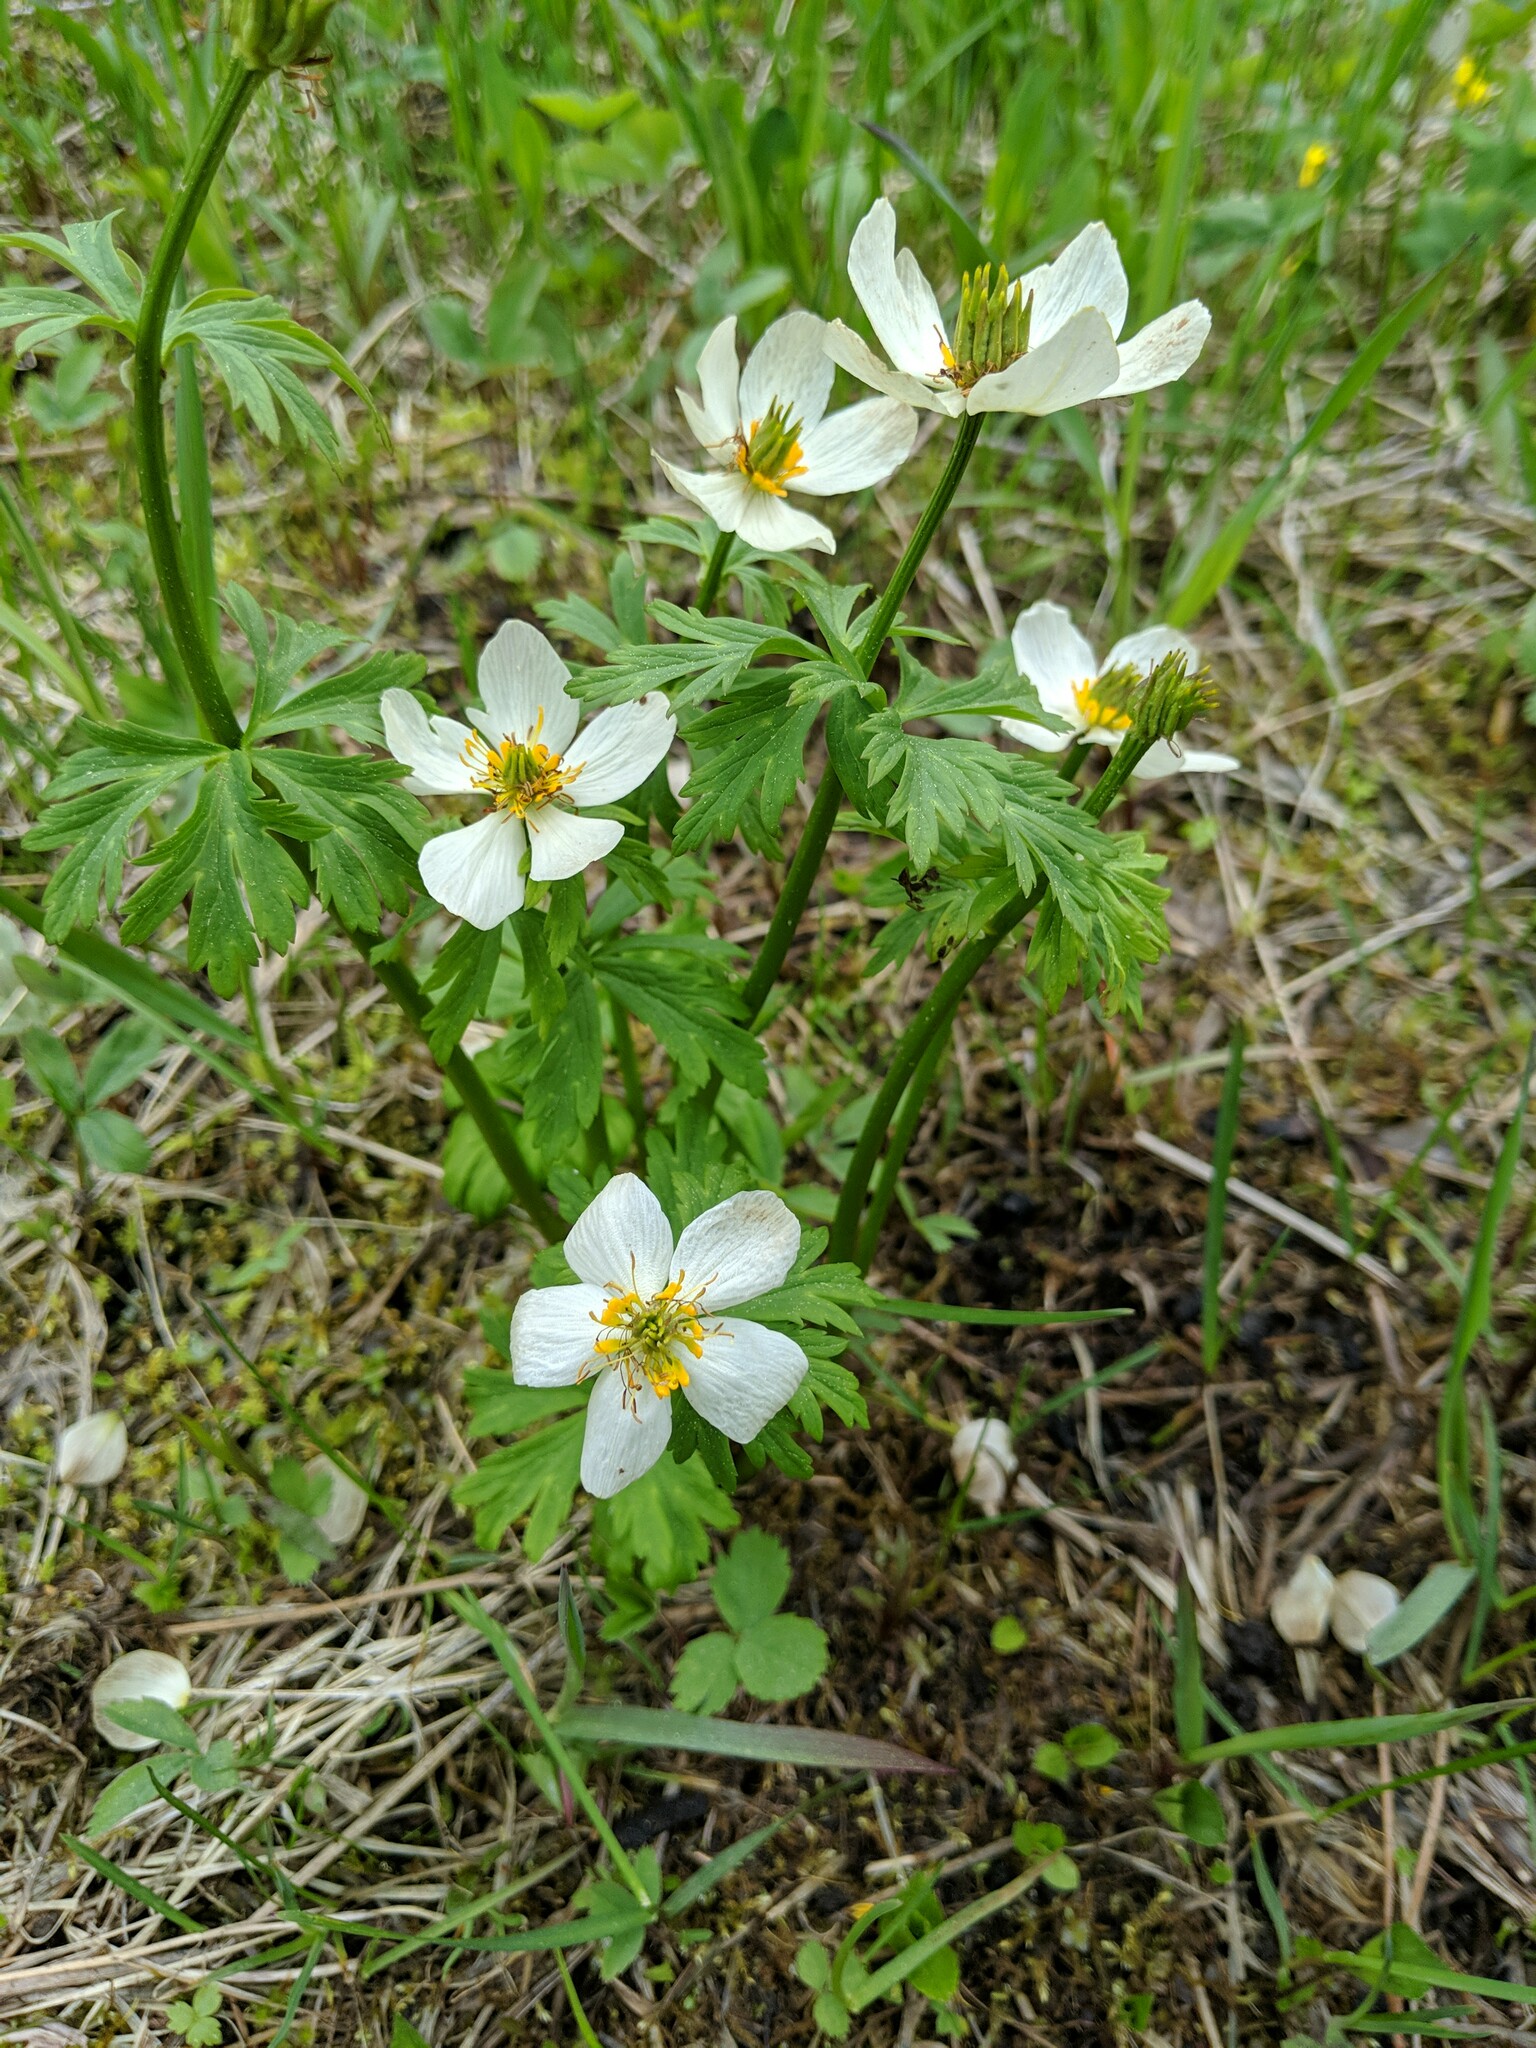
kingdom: Plantae
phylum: Tracheophyta
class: Magnoliopsida
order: Ranunculales
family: Ranunculaceae
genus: Trollius
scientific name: Trollius laxus
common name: American globeflower
